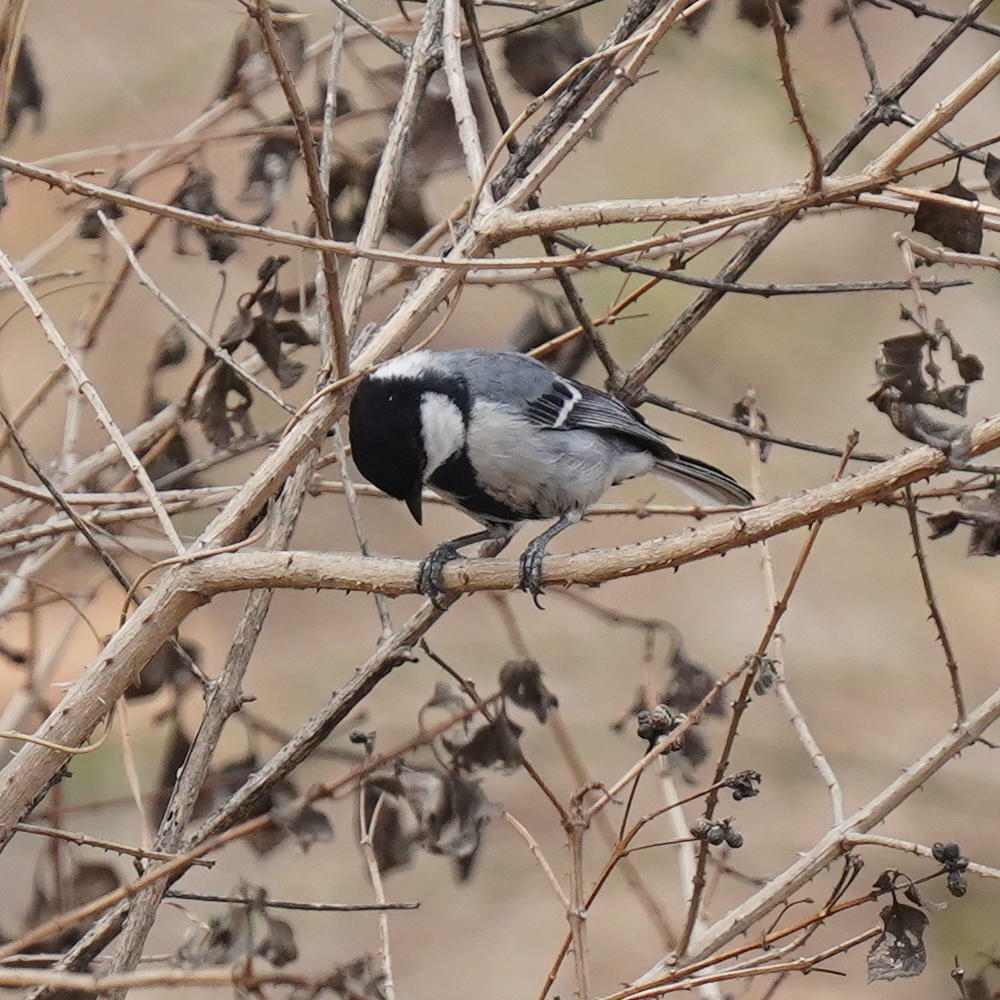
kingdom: Animalia
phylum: Chordata
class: Aves
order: Passeriformes
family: Paridae
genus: Parus
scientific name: Parus cinereus
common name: Cinereous tit
